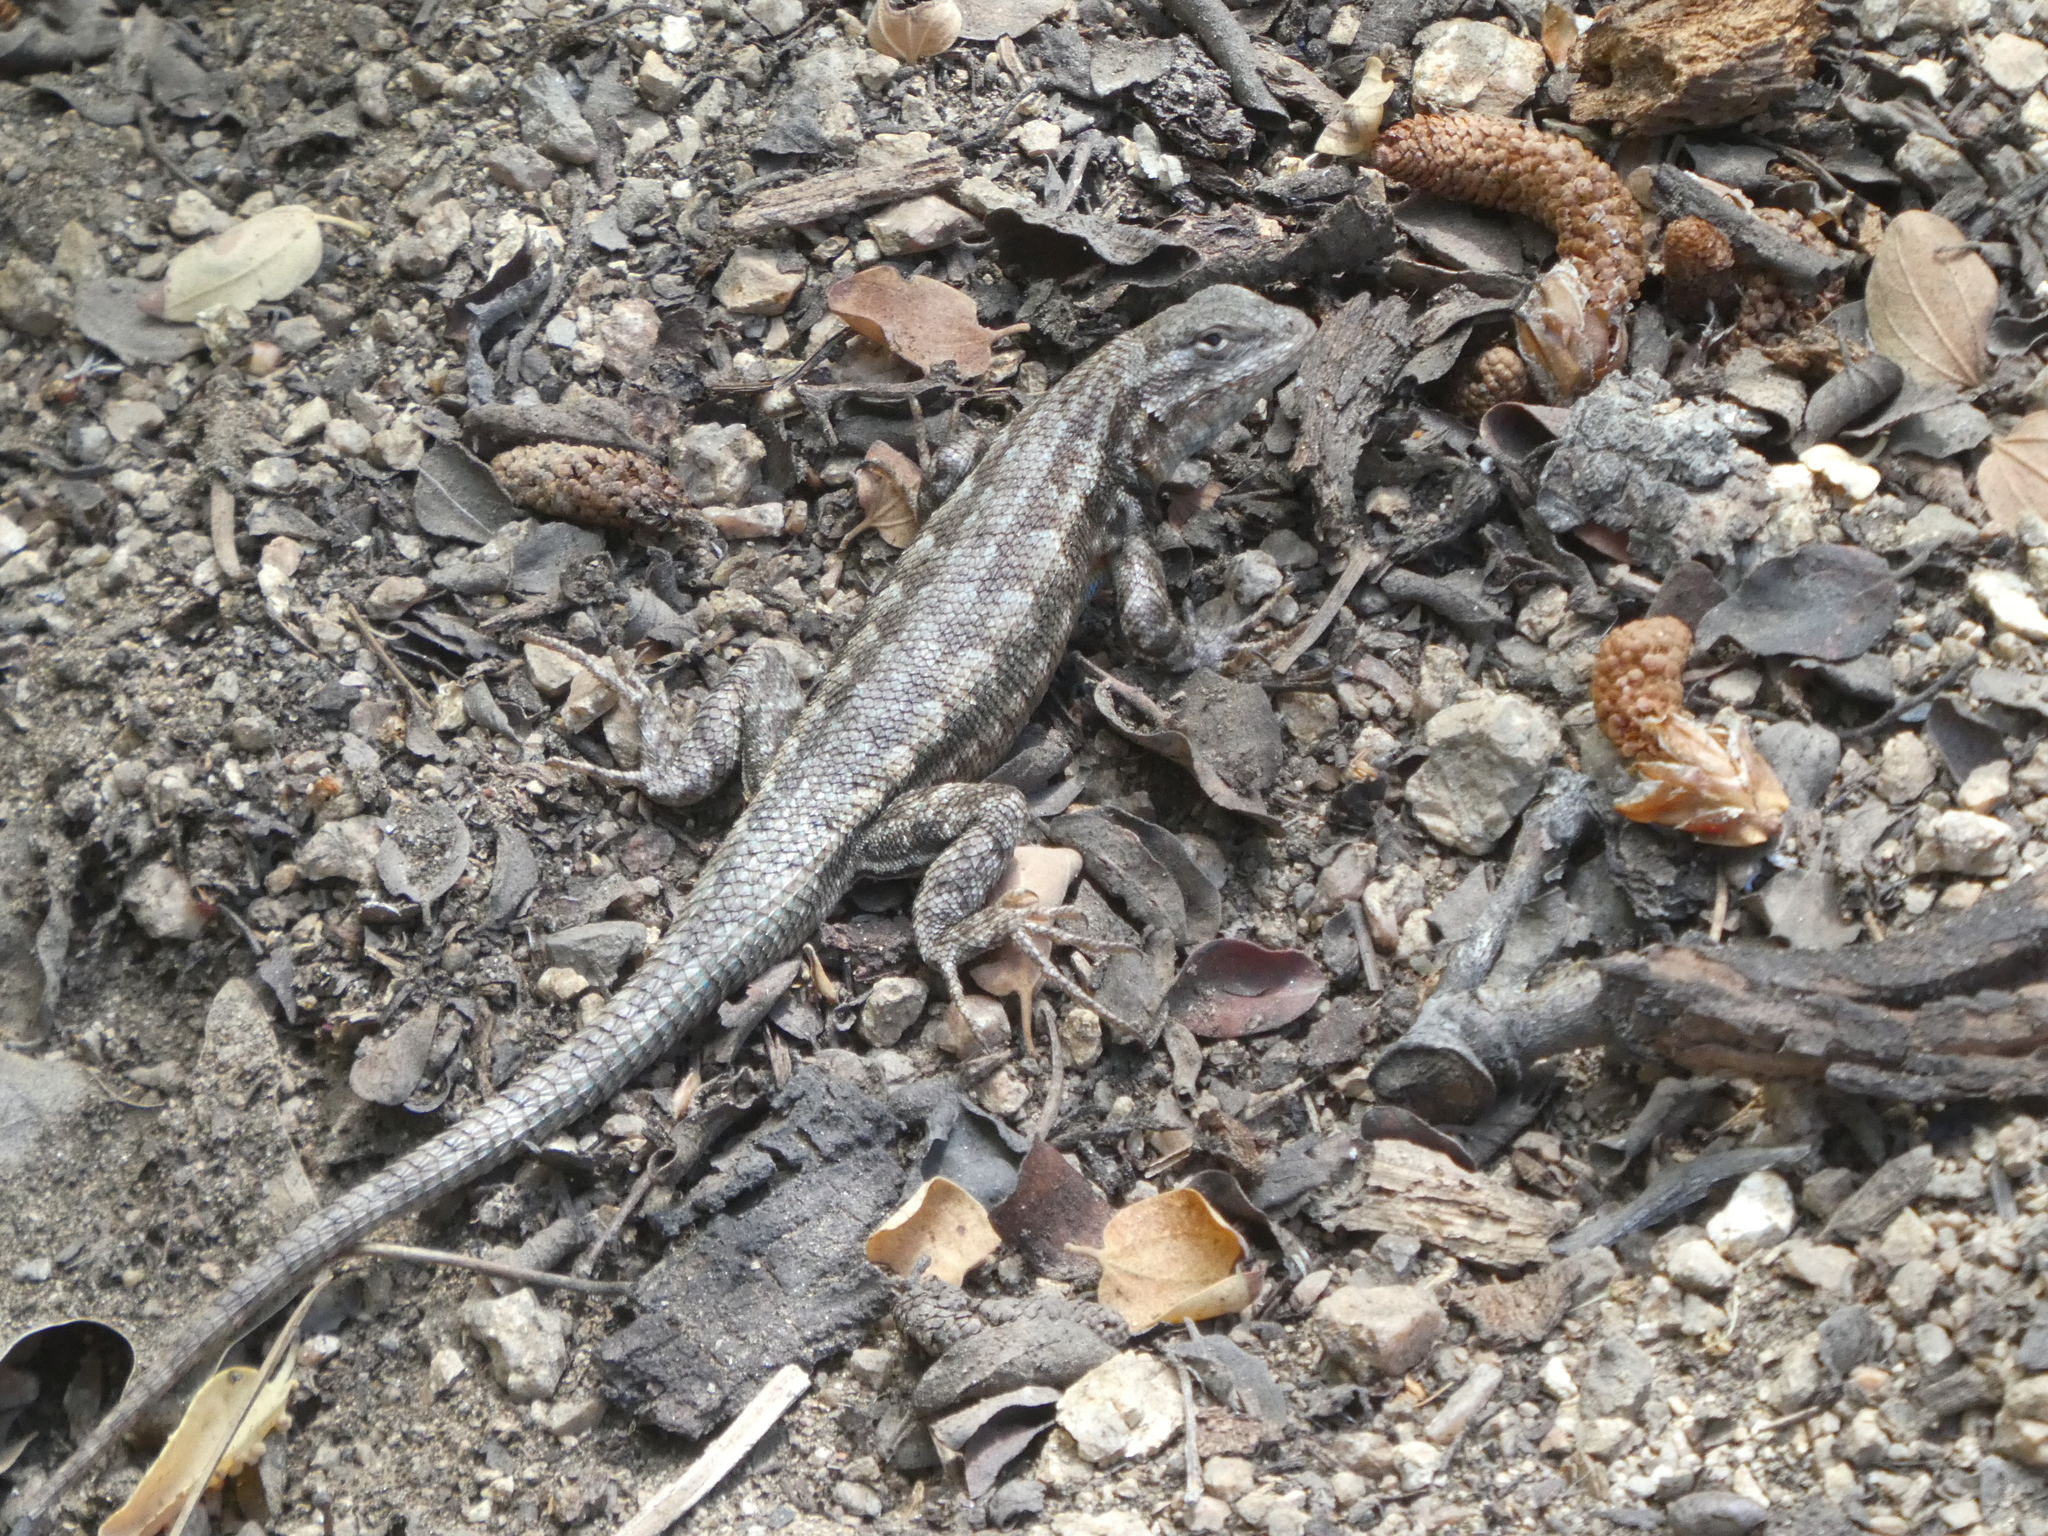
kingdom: Animalia
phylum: Chordata
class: Squamata
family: Phrynosomatidae
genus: Sceloporus
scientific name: Sceloporus graciosus
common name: Sagebrush lizard
